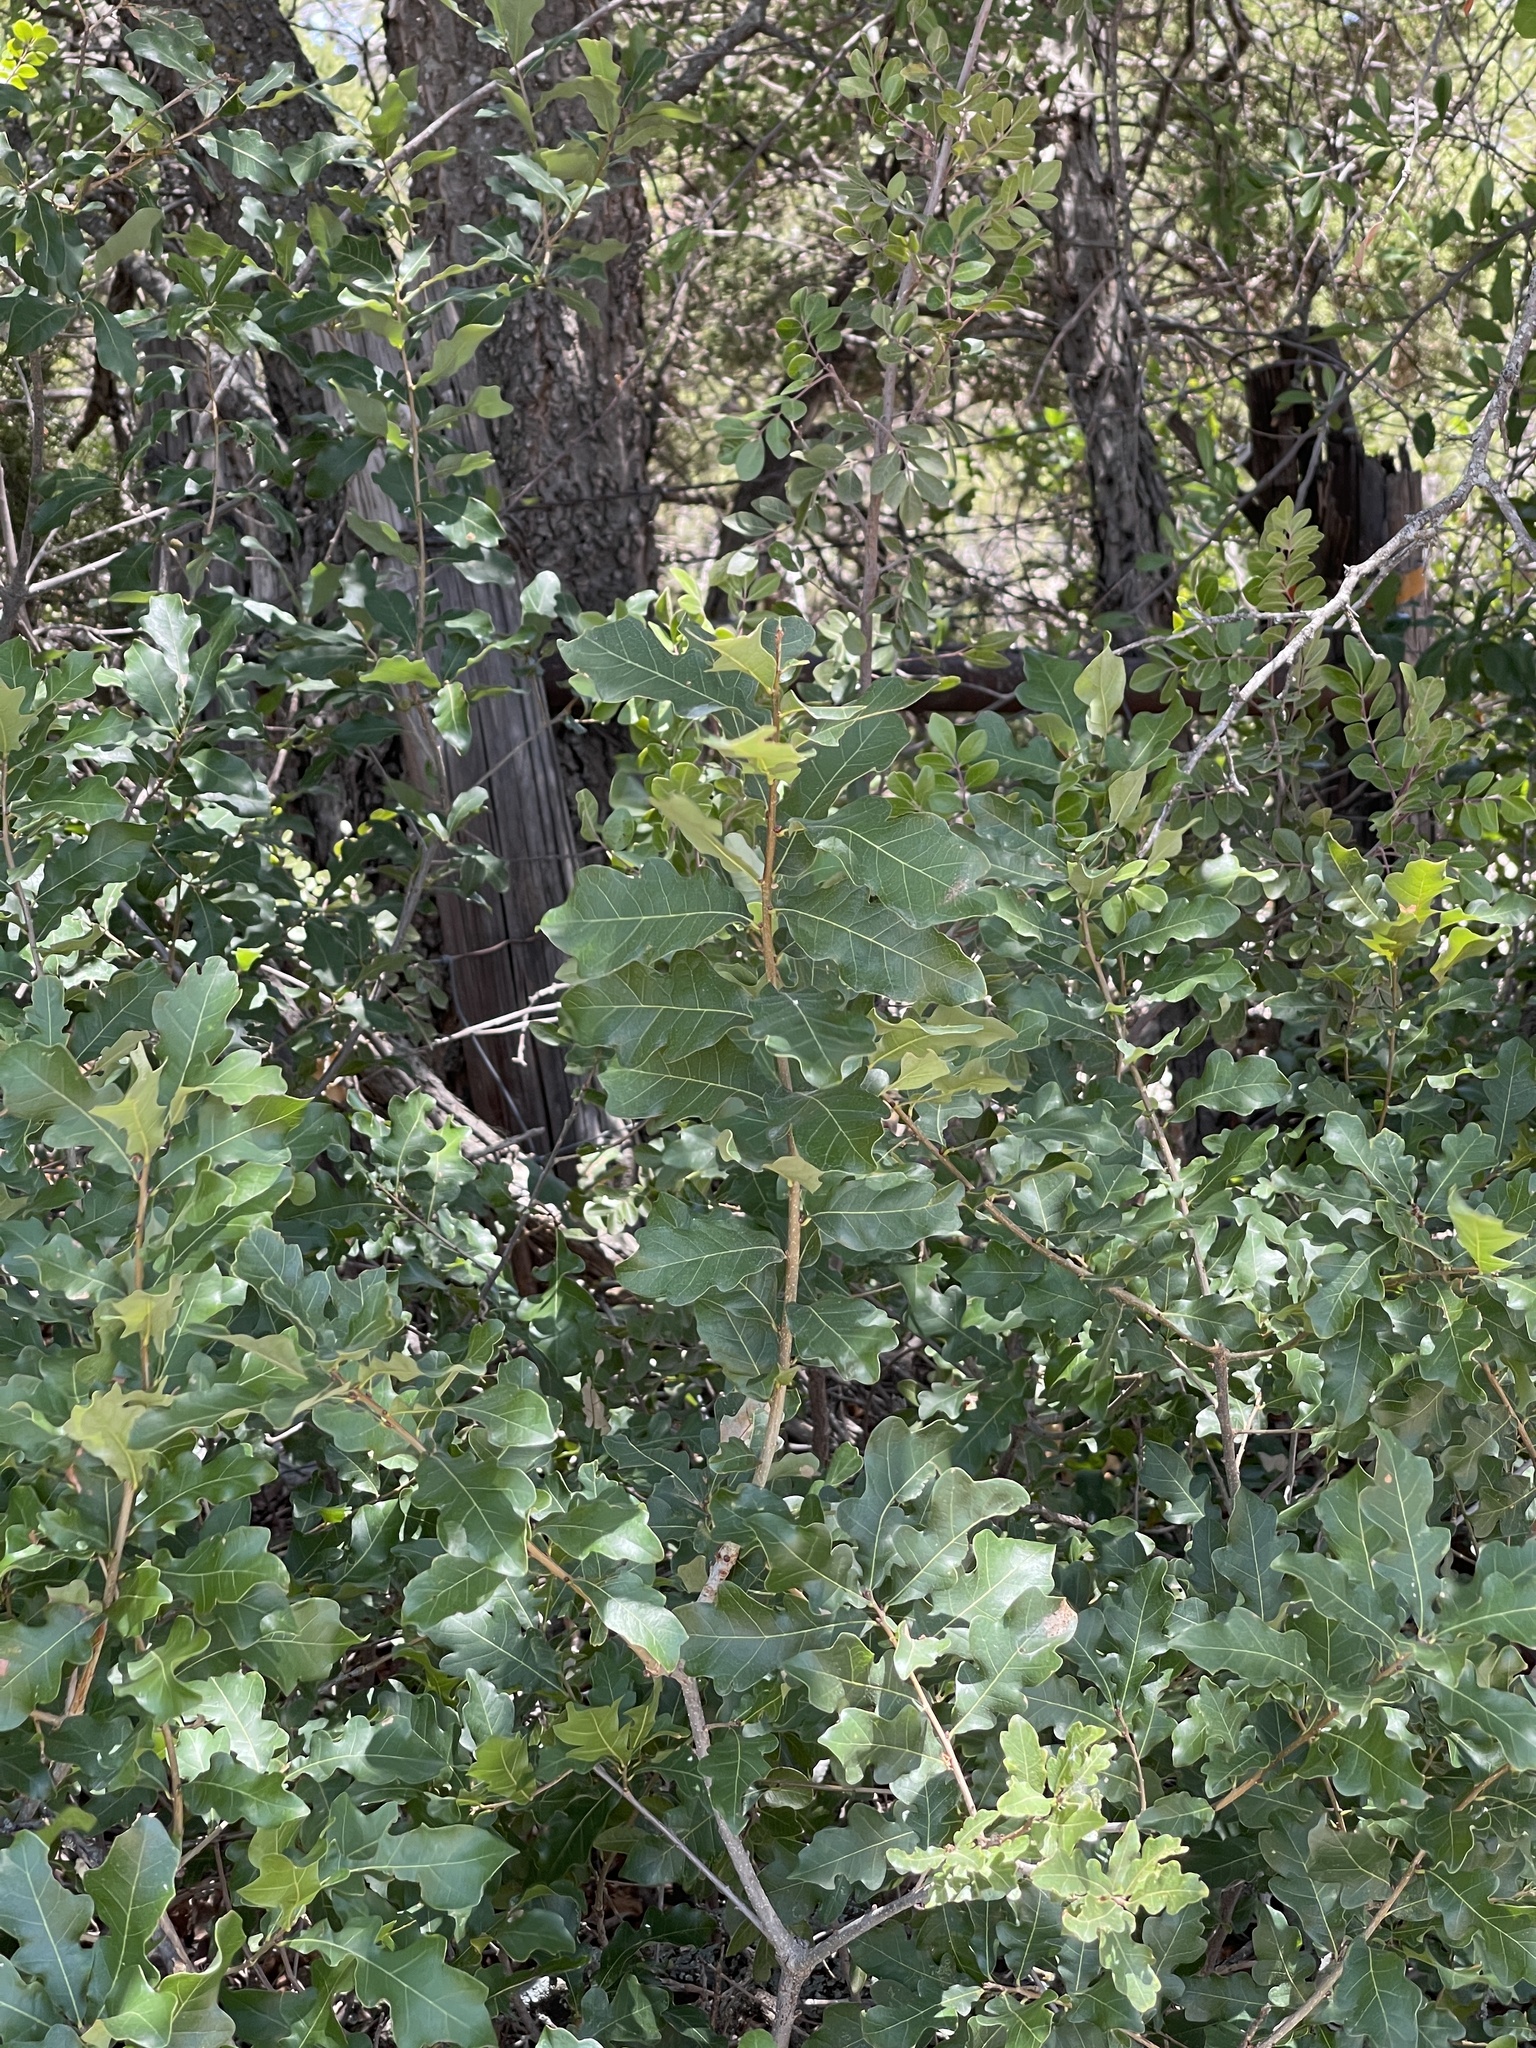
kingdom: Plantae
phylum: Tracheophyta
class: Magnoliopsida
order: Fagales
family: Fagaceae
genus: Quercus
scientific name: Quercus sinuata
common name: Durand oak
